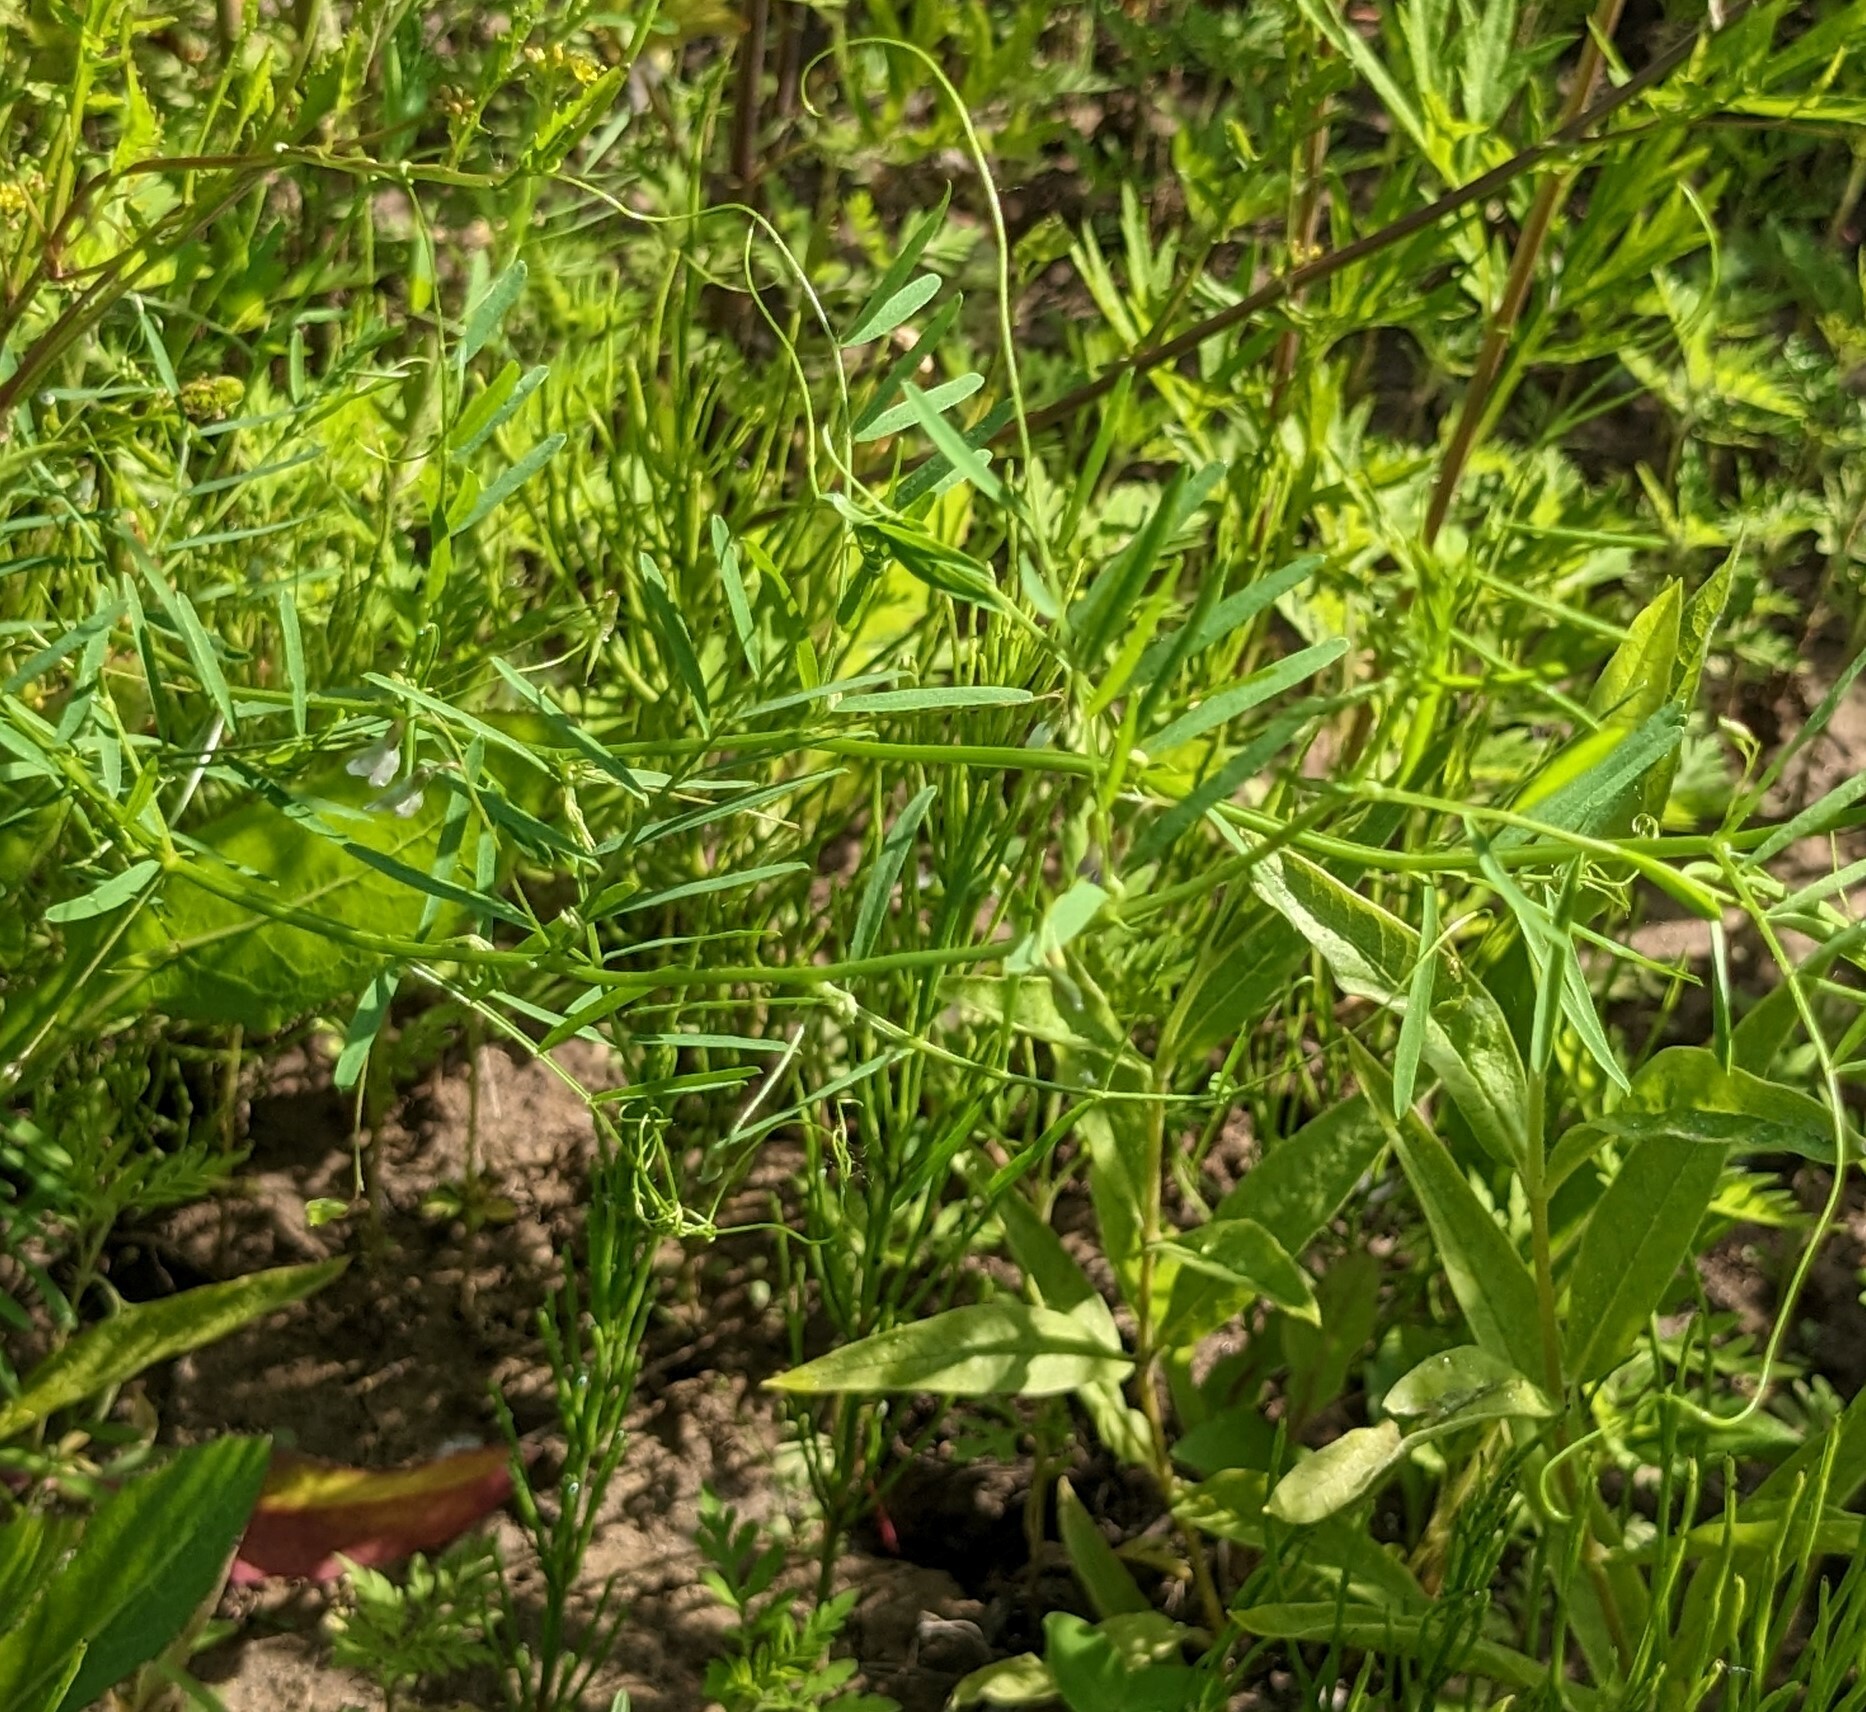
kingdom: Plantae
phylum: Tracheophyta
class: Magnoliopsida
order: Fabales
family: Fabaceae
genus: Vicia
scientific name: Vicia tetrasperma
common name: Smooth tare
